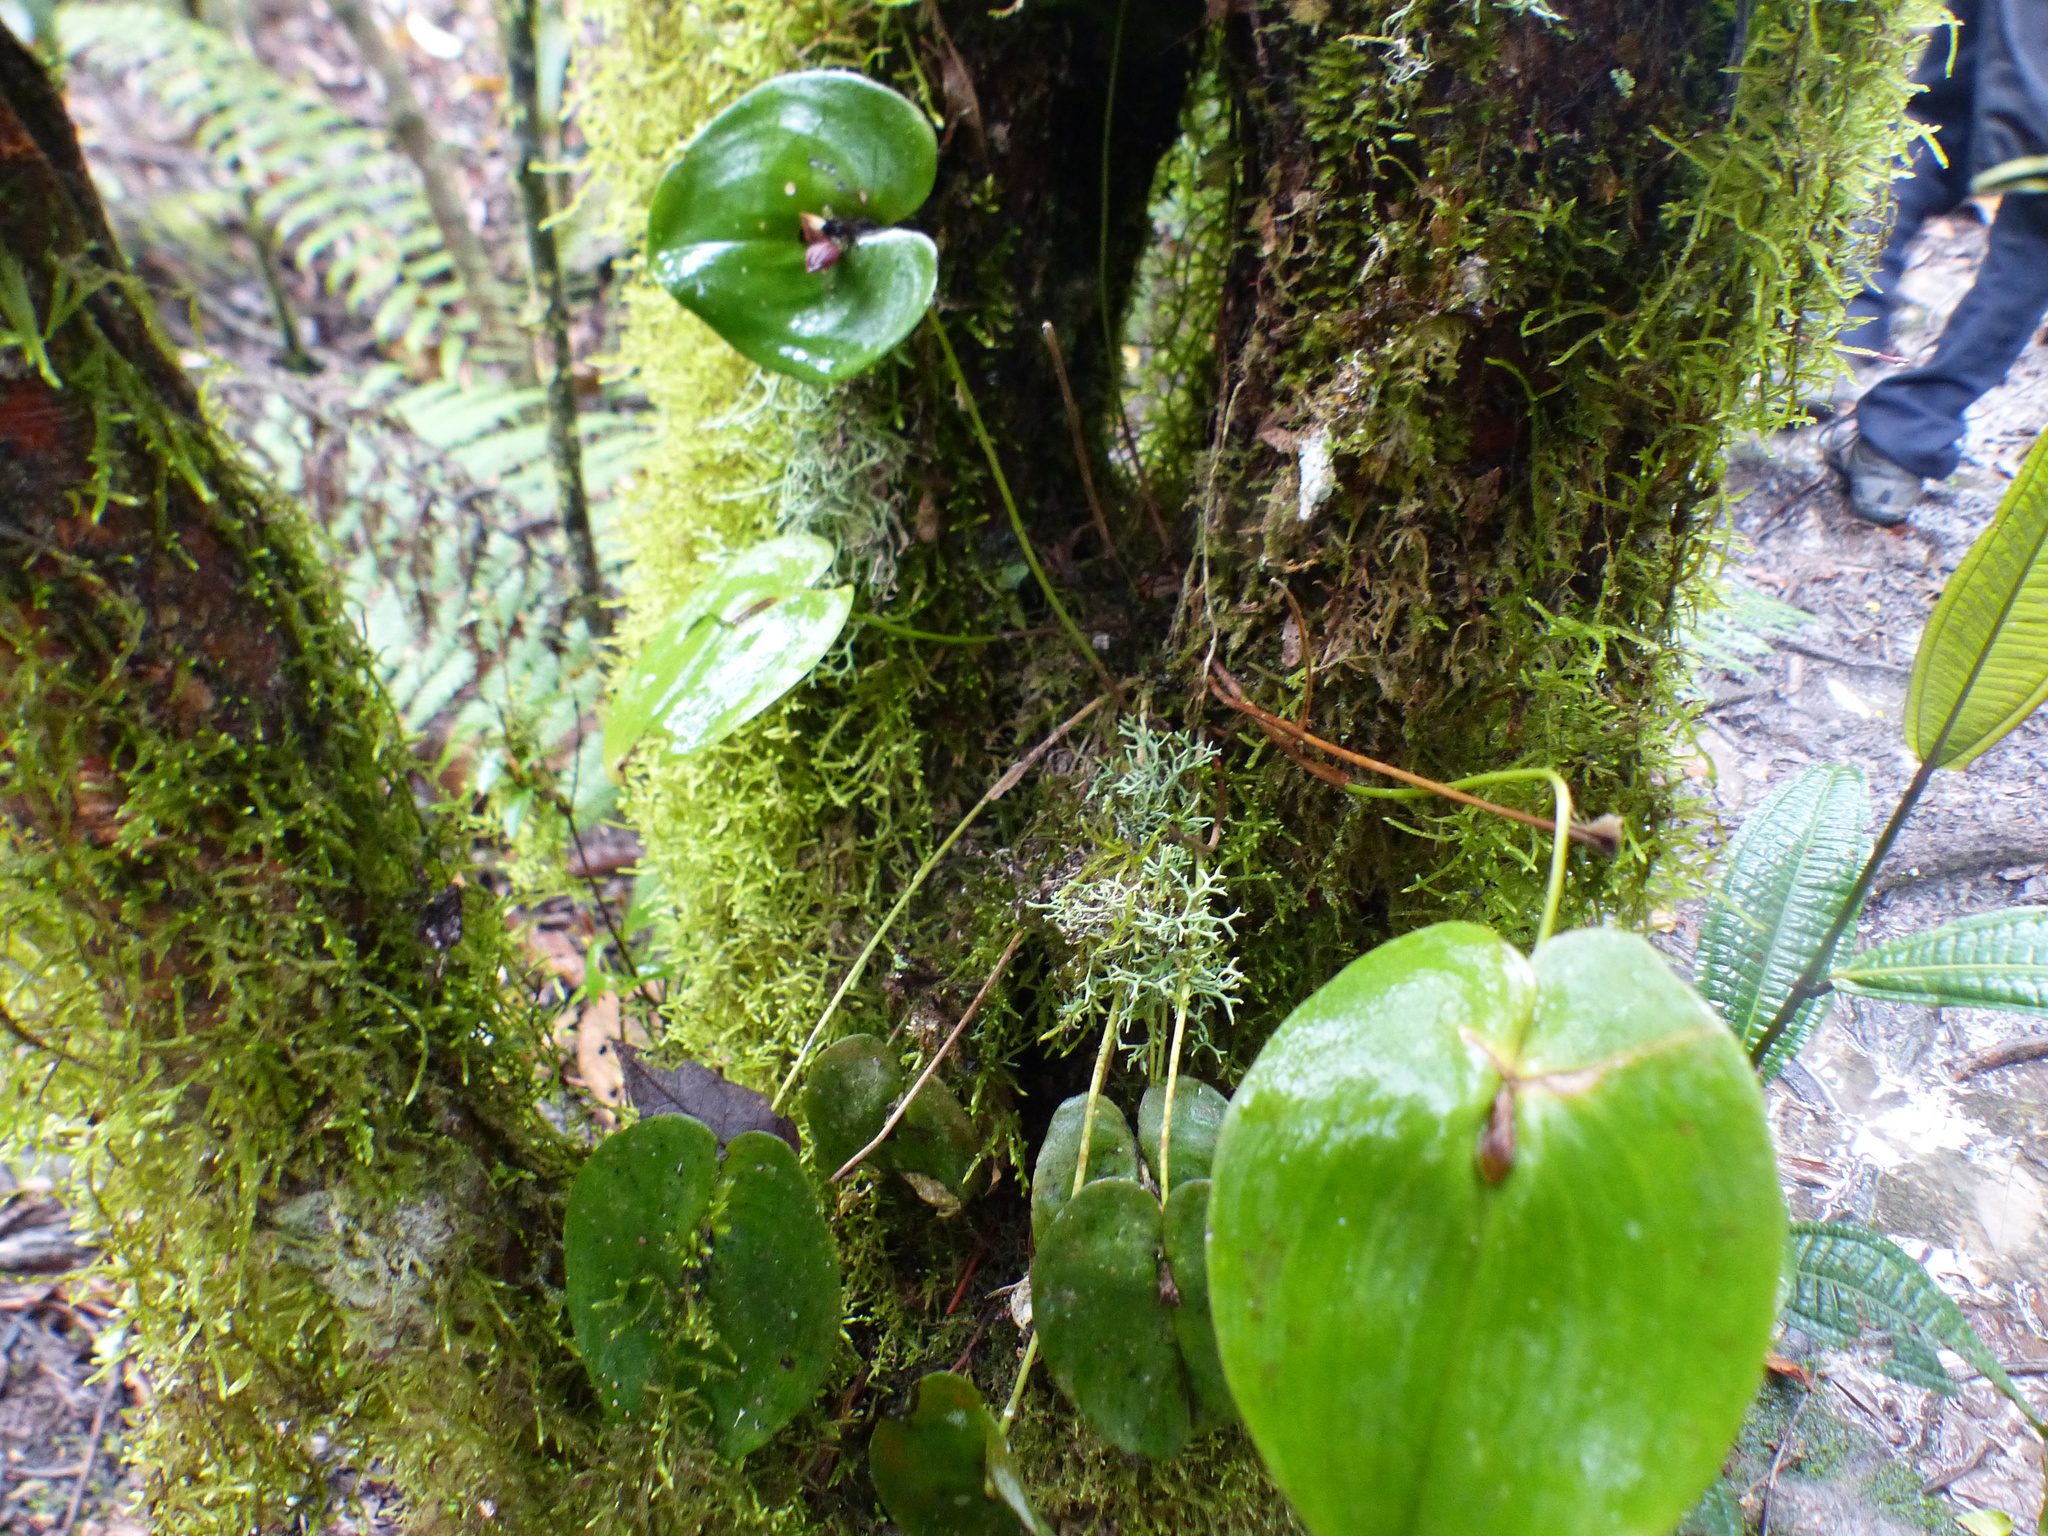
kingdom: Plantae
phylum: Tracheophyta
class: Liliopsida
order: Asparagales
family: Orchidaceae
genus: Pleurothallis
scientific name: Pleurothallis cordata
